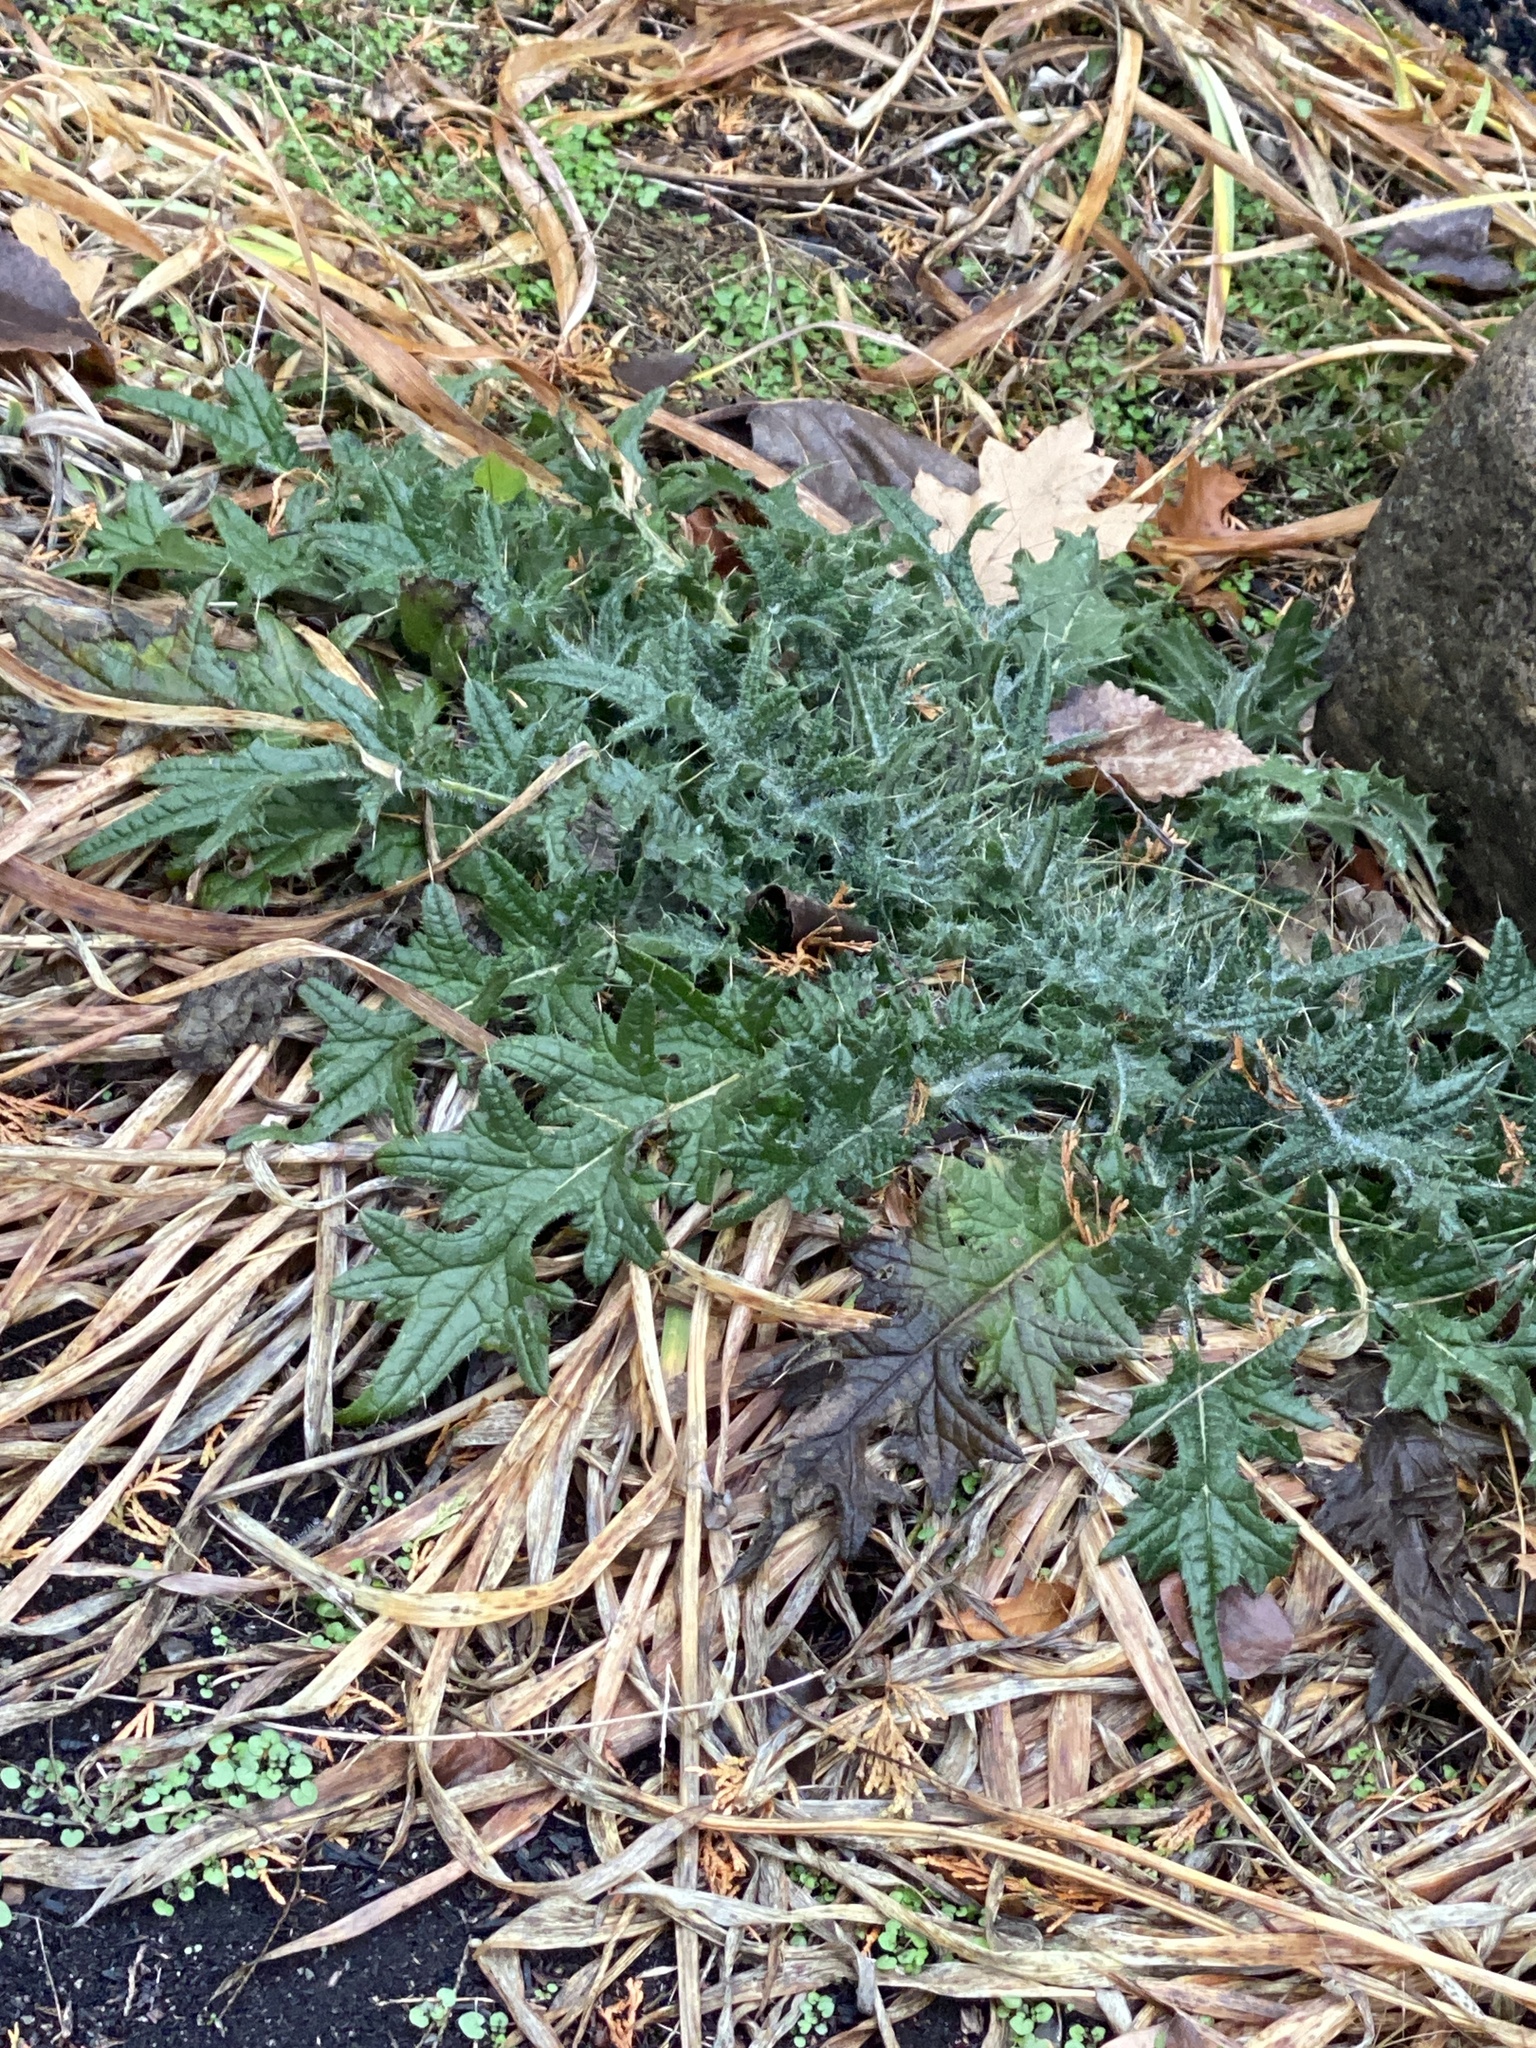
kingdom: Plantae
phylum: Tracheophyta
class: Magnoliopsida
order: Asterales
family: Asteraceae
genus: Cirsium
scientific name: Cirsium vulgare
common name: Bull thistle
